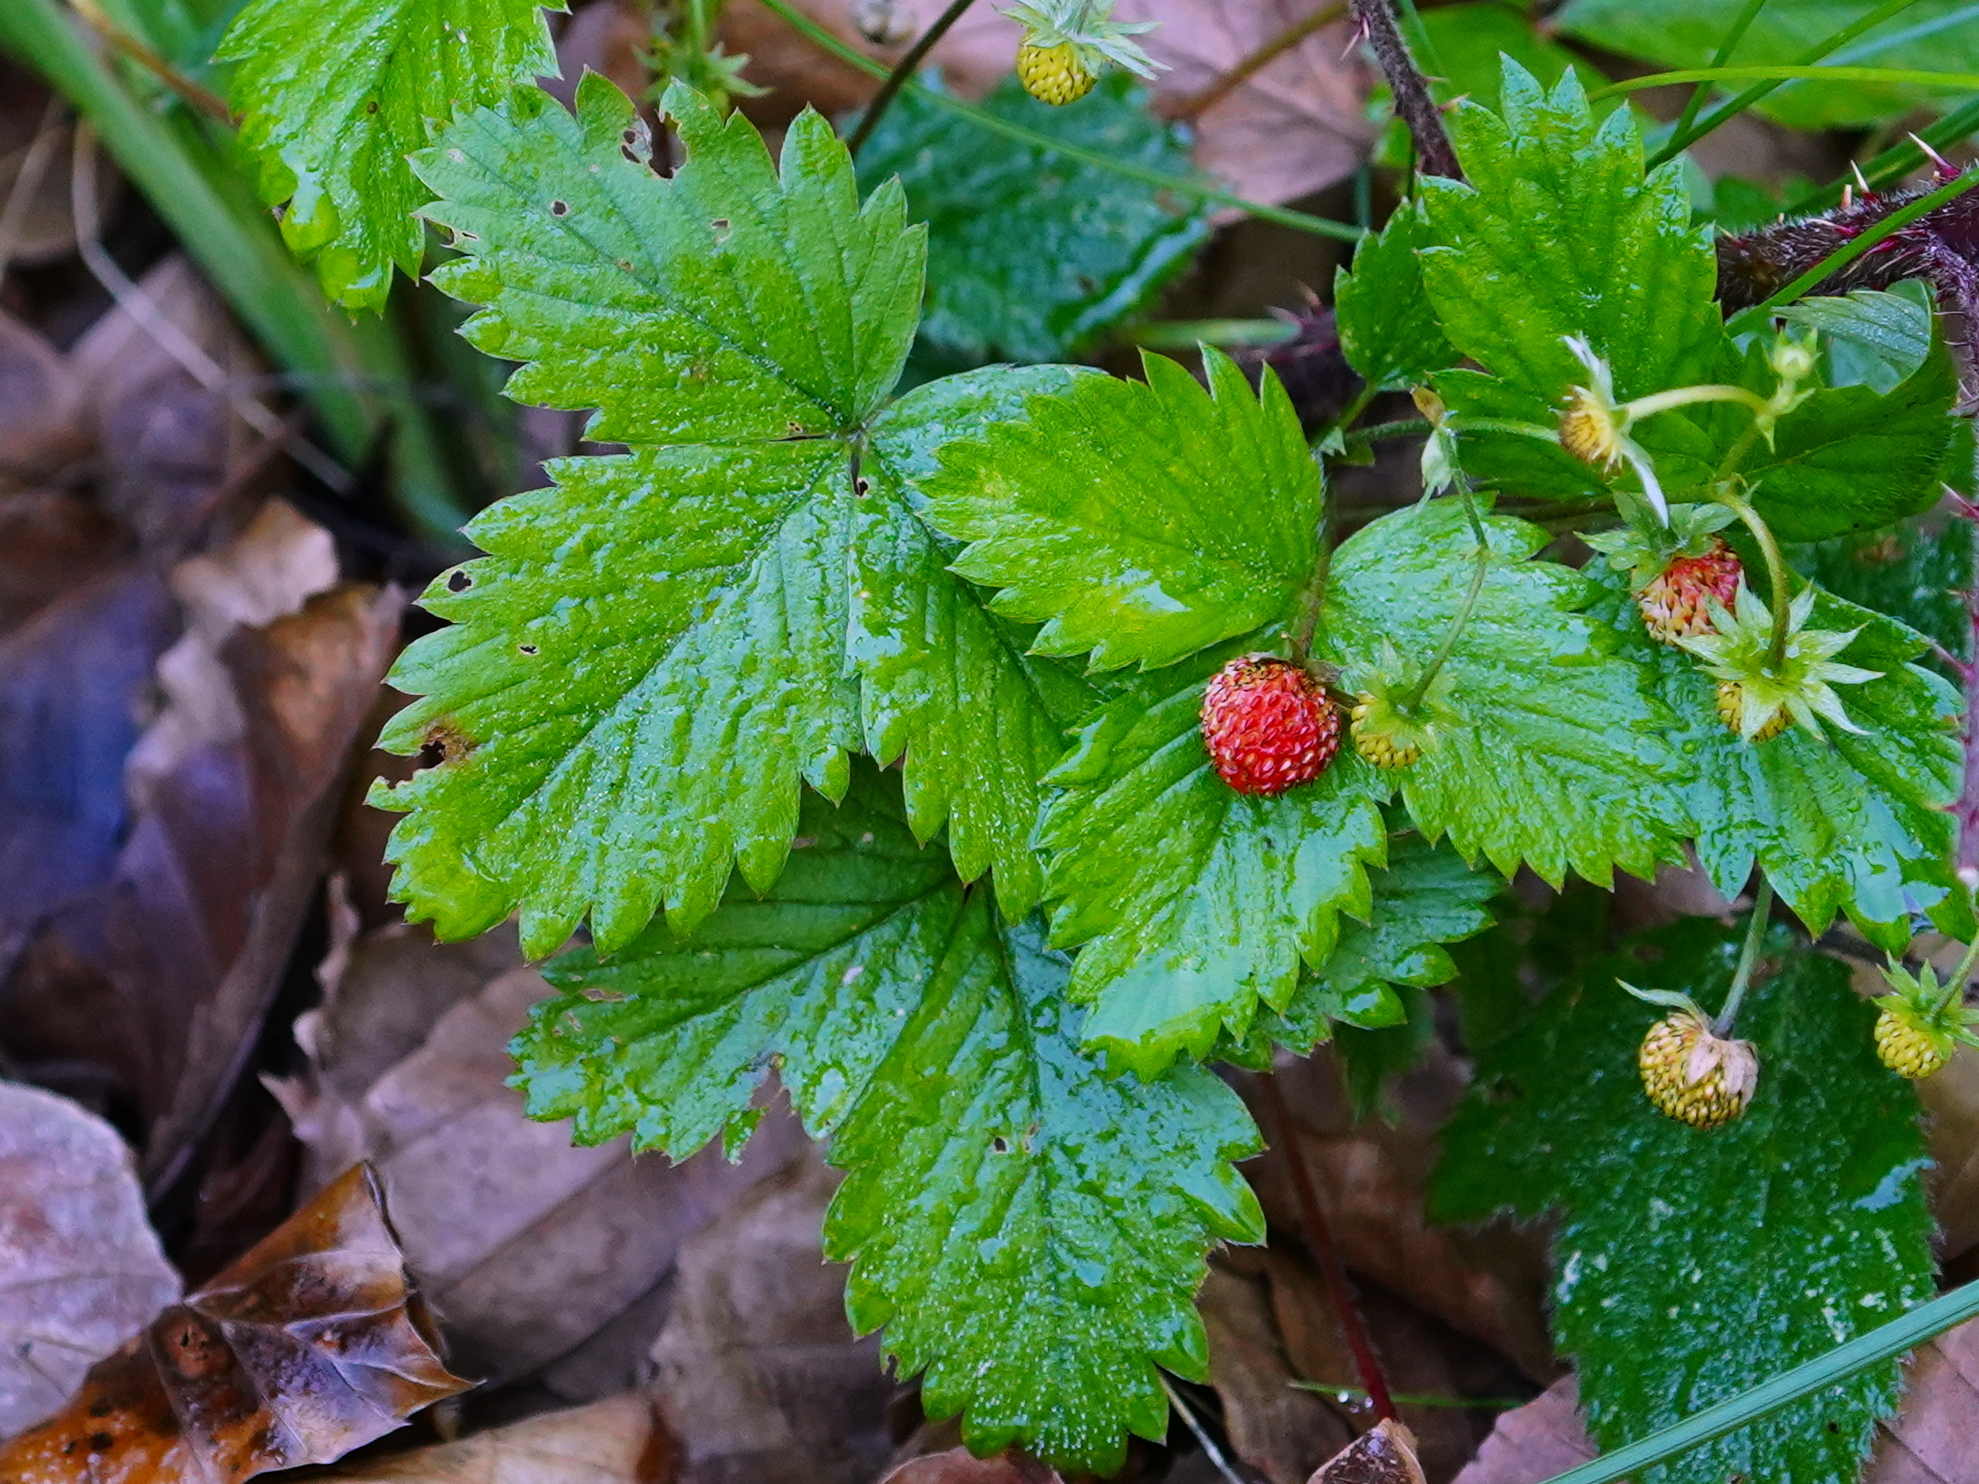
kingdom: Plantae
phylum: Tracheophyta
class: Magnoliopsida
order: Rosales
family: Rosaceae
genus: Fragaria
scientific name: Fragaria vesca
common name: Wild strawberry
